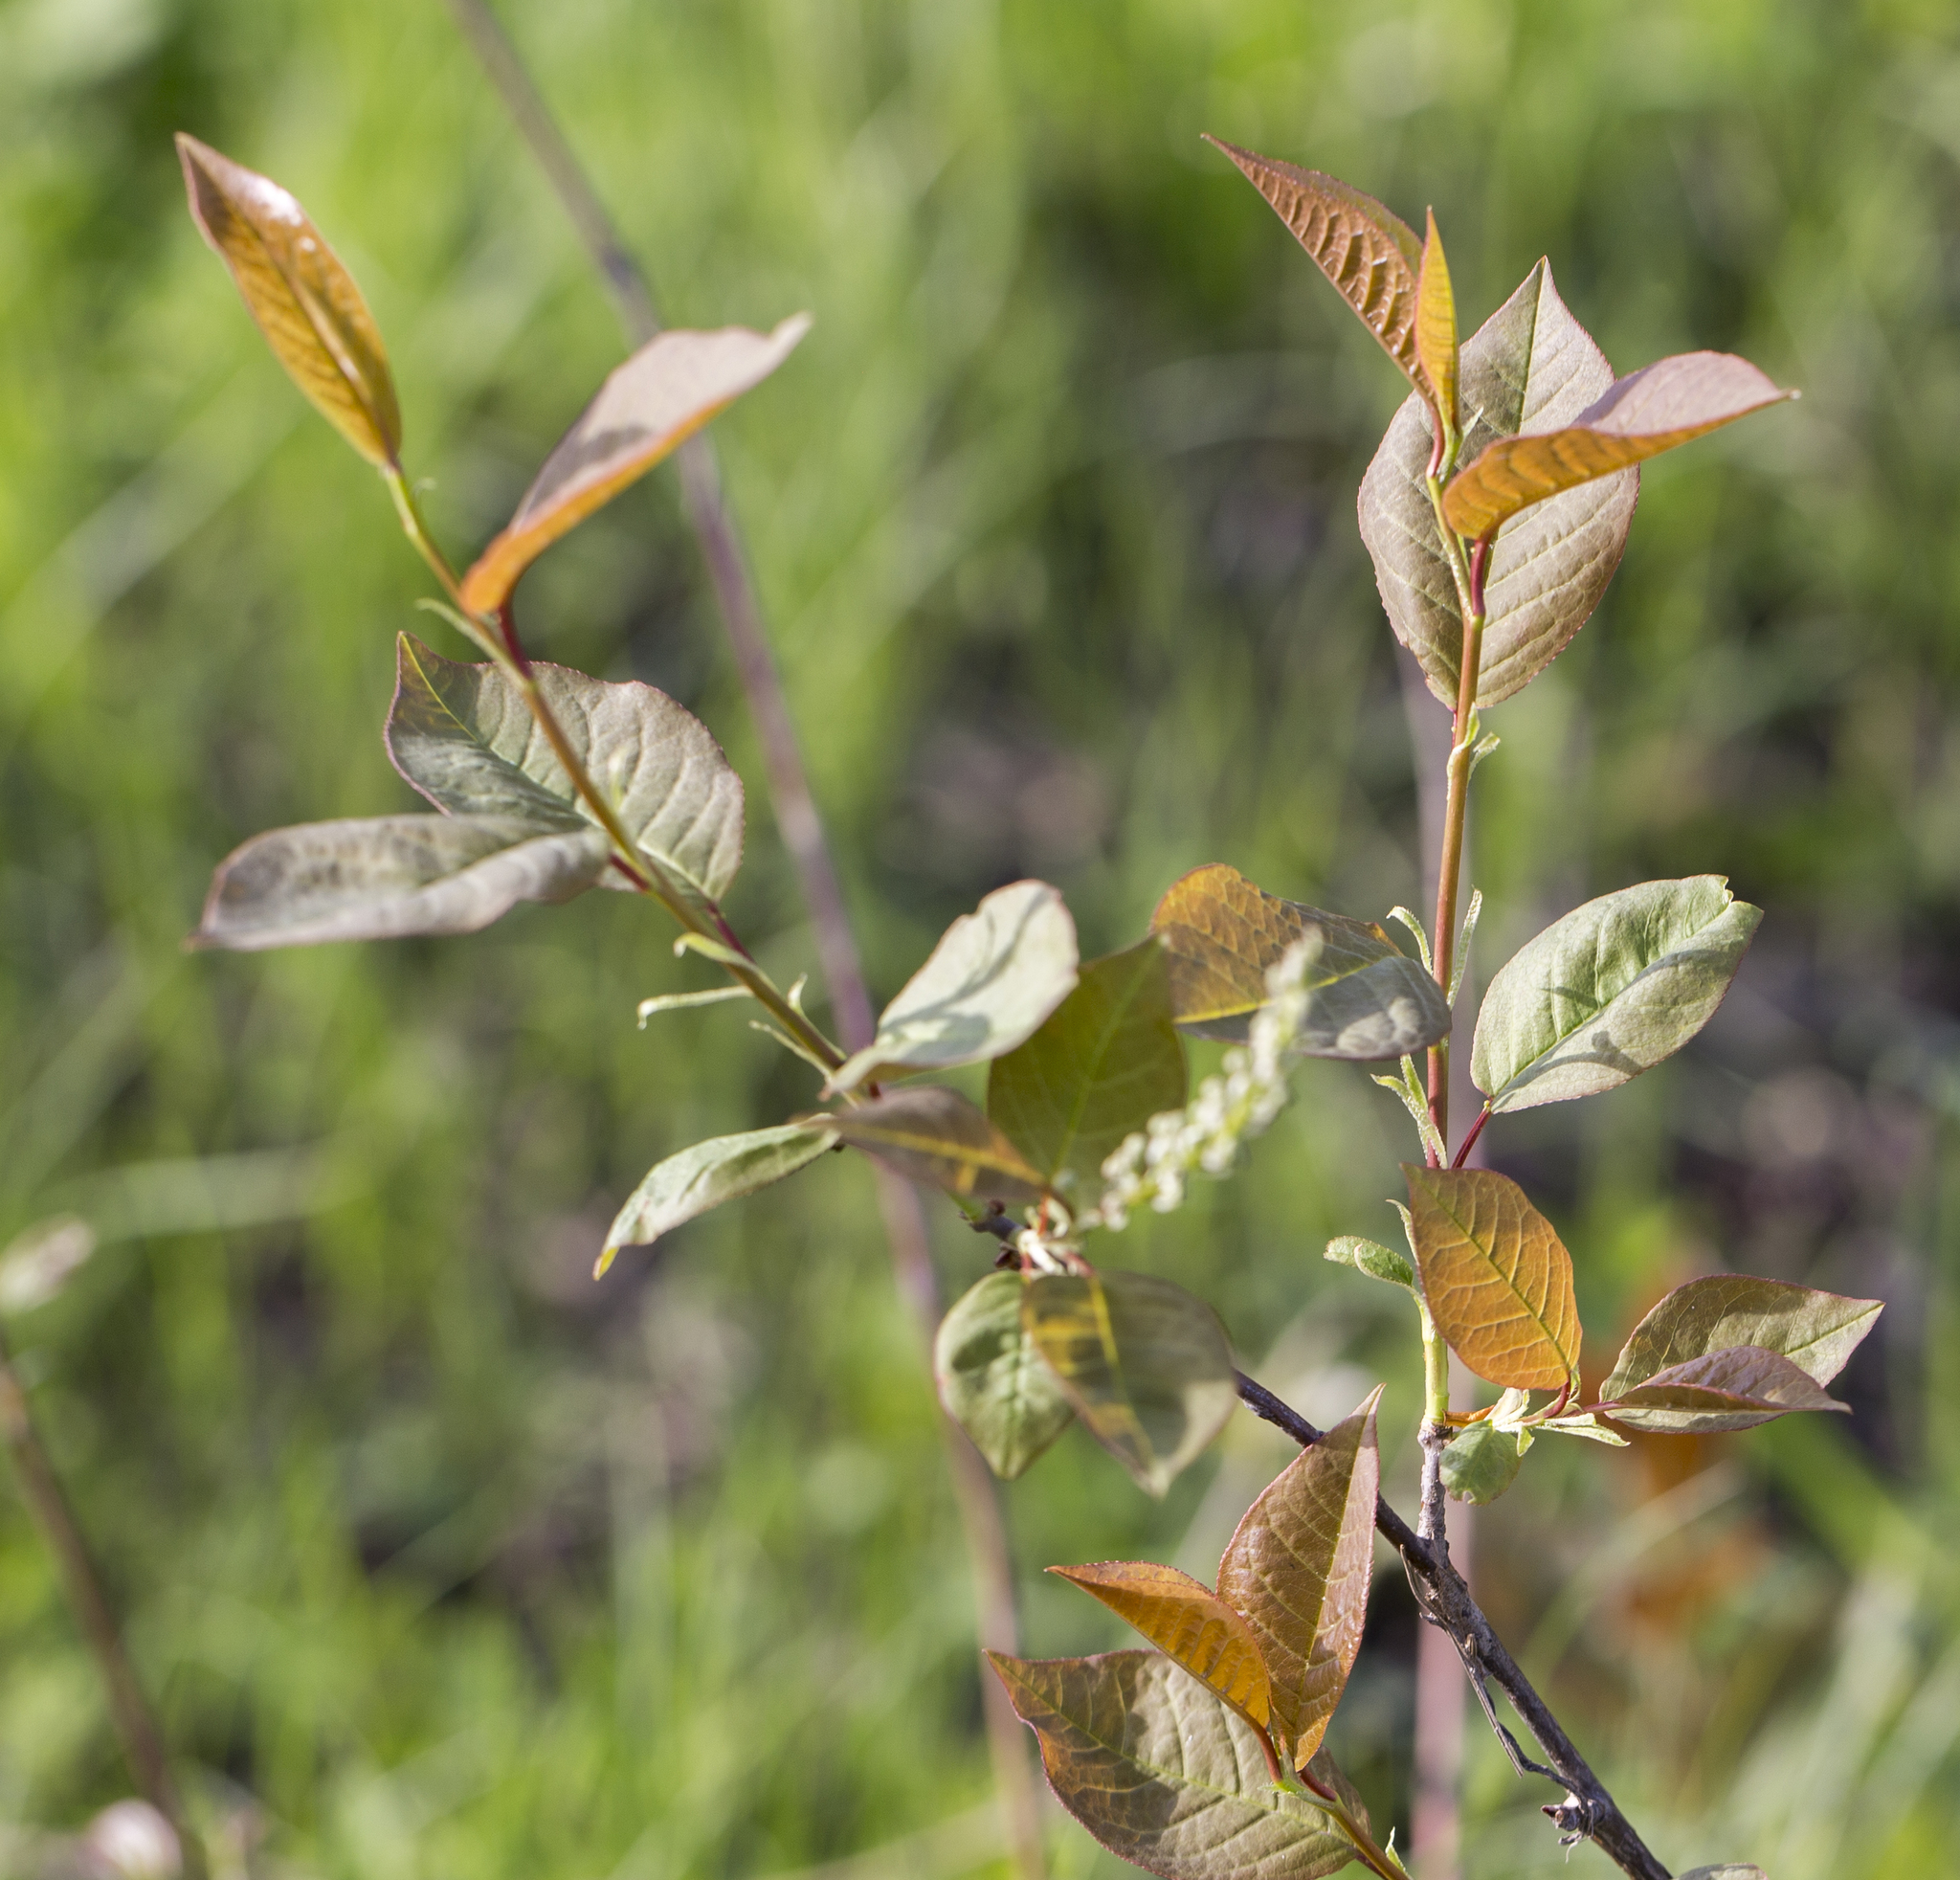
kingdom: Plantae
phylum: Tracheophyta
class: Magnoliopsida
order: Rosales
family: Rosaceae
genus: Prunus
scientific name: Prunus padus
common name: Bird cherry
